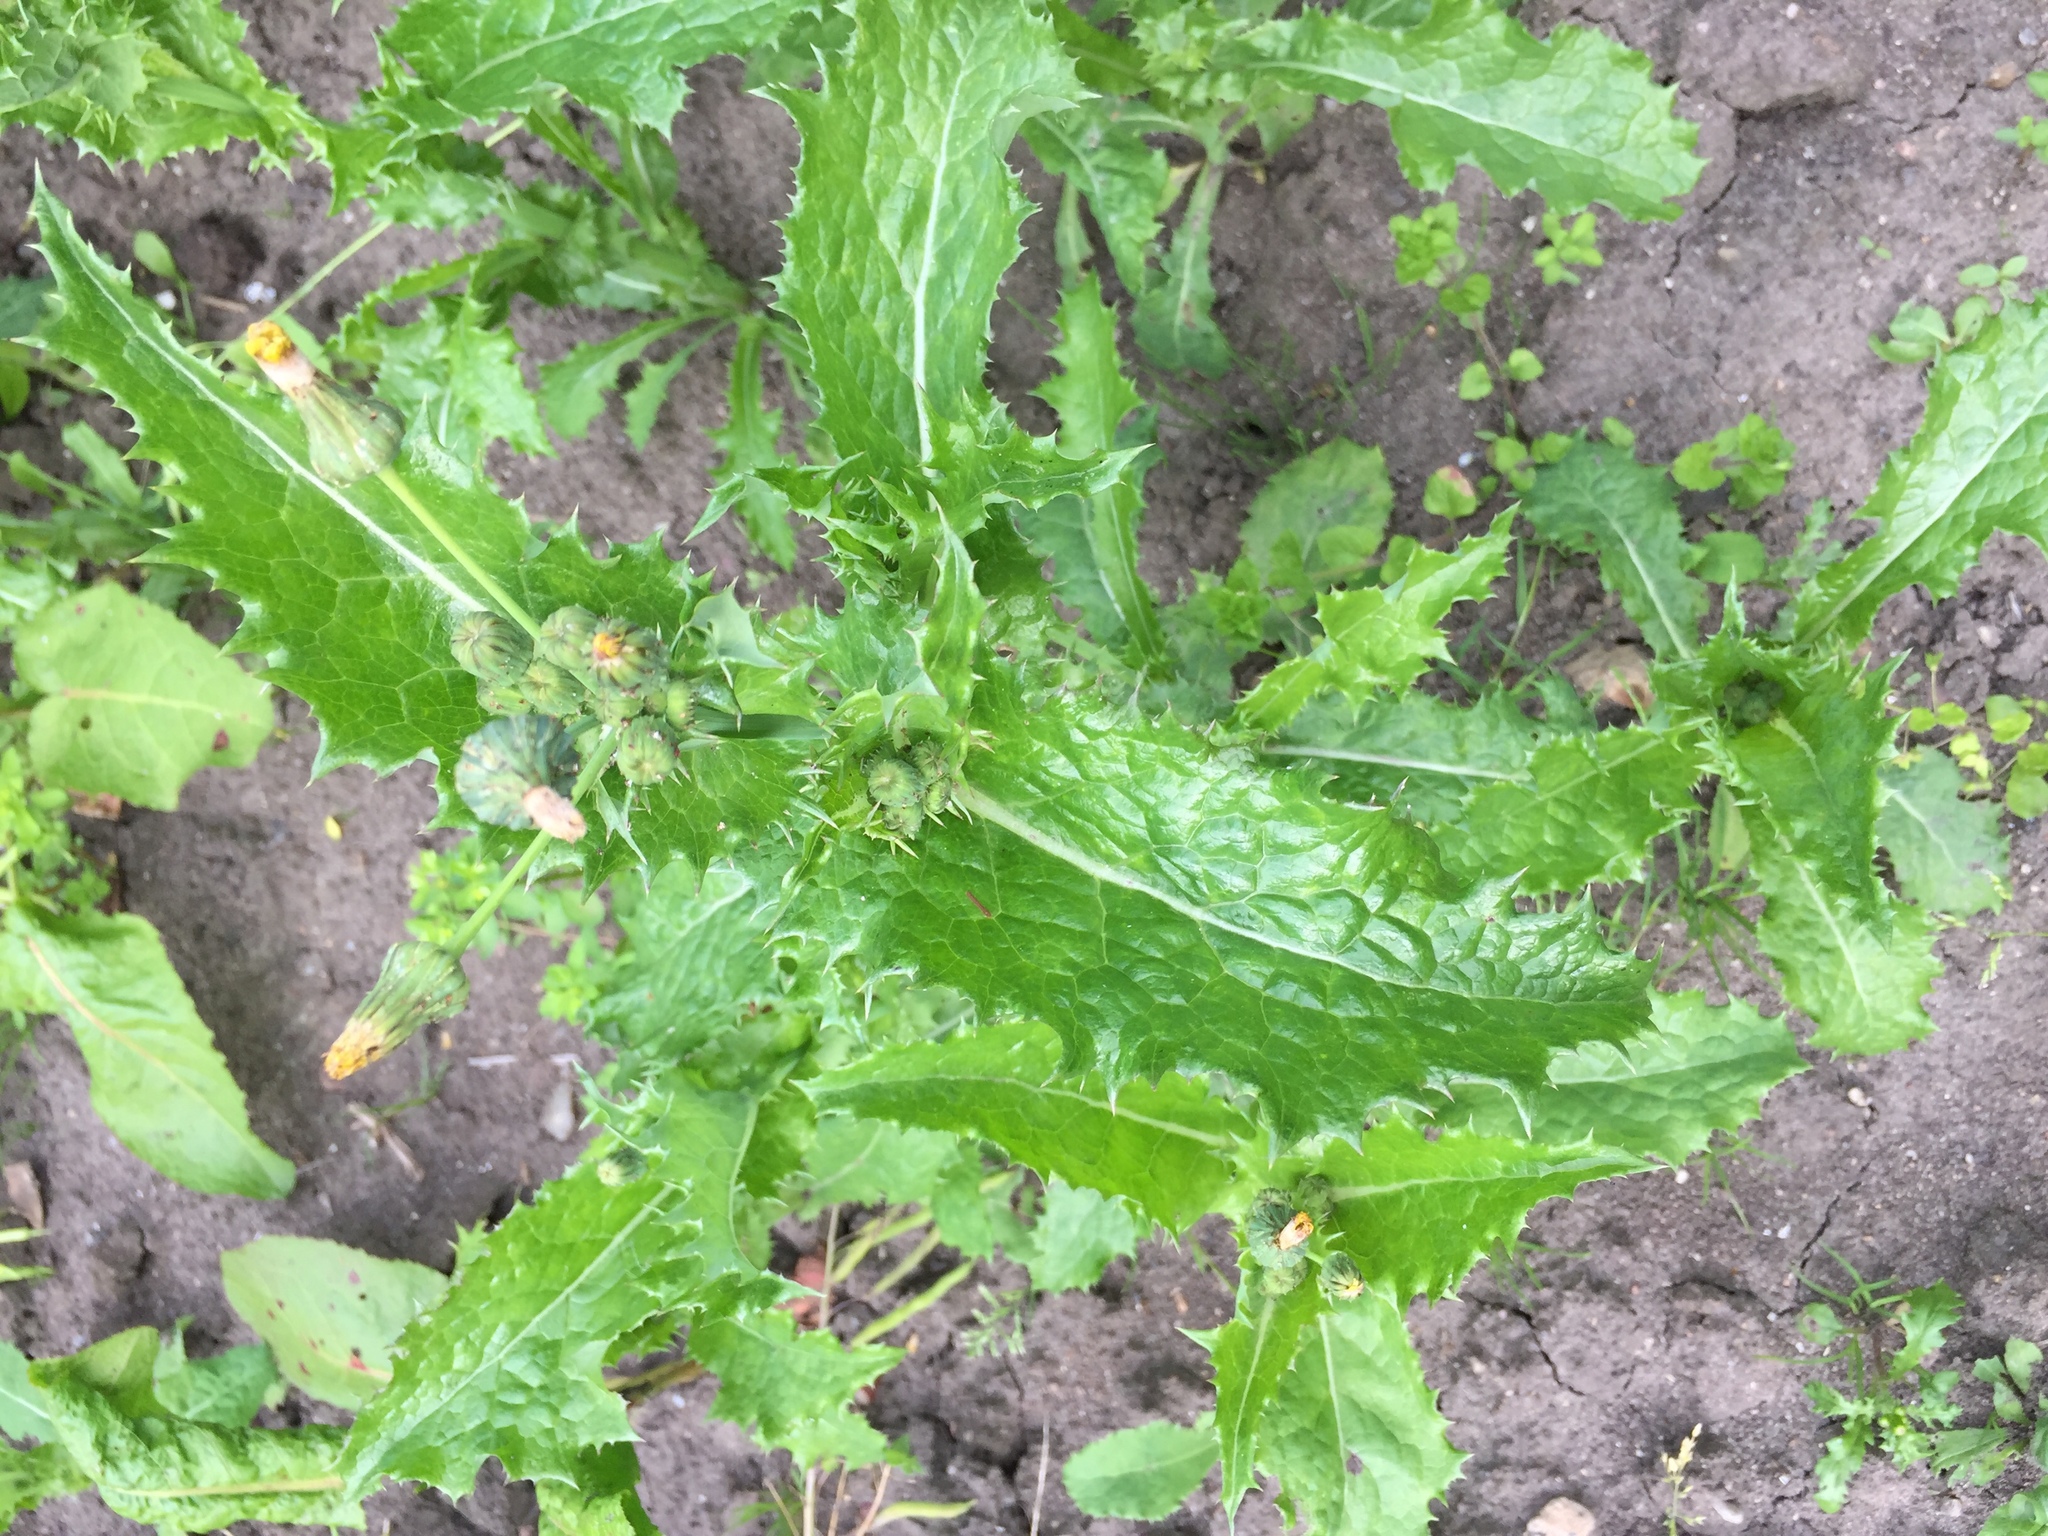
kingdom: Plantae
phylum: Tracheophyta
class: Magnoliopsida
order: Asterales
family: Asteraceae
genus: Sonchus
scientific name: Sonchus asper
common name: Prickly sow-thistle
